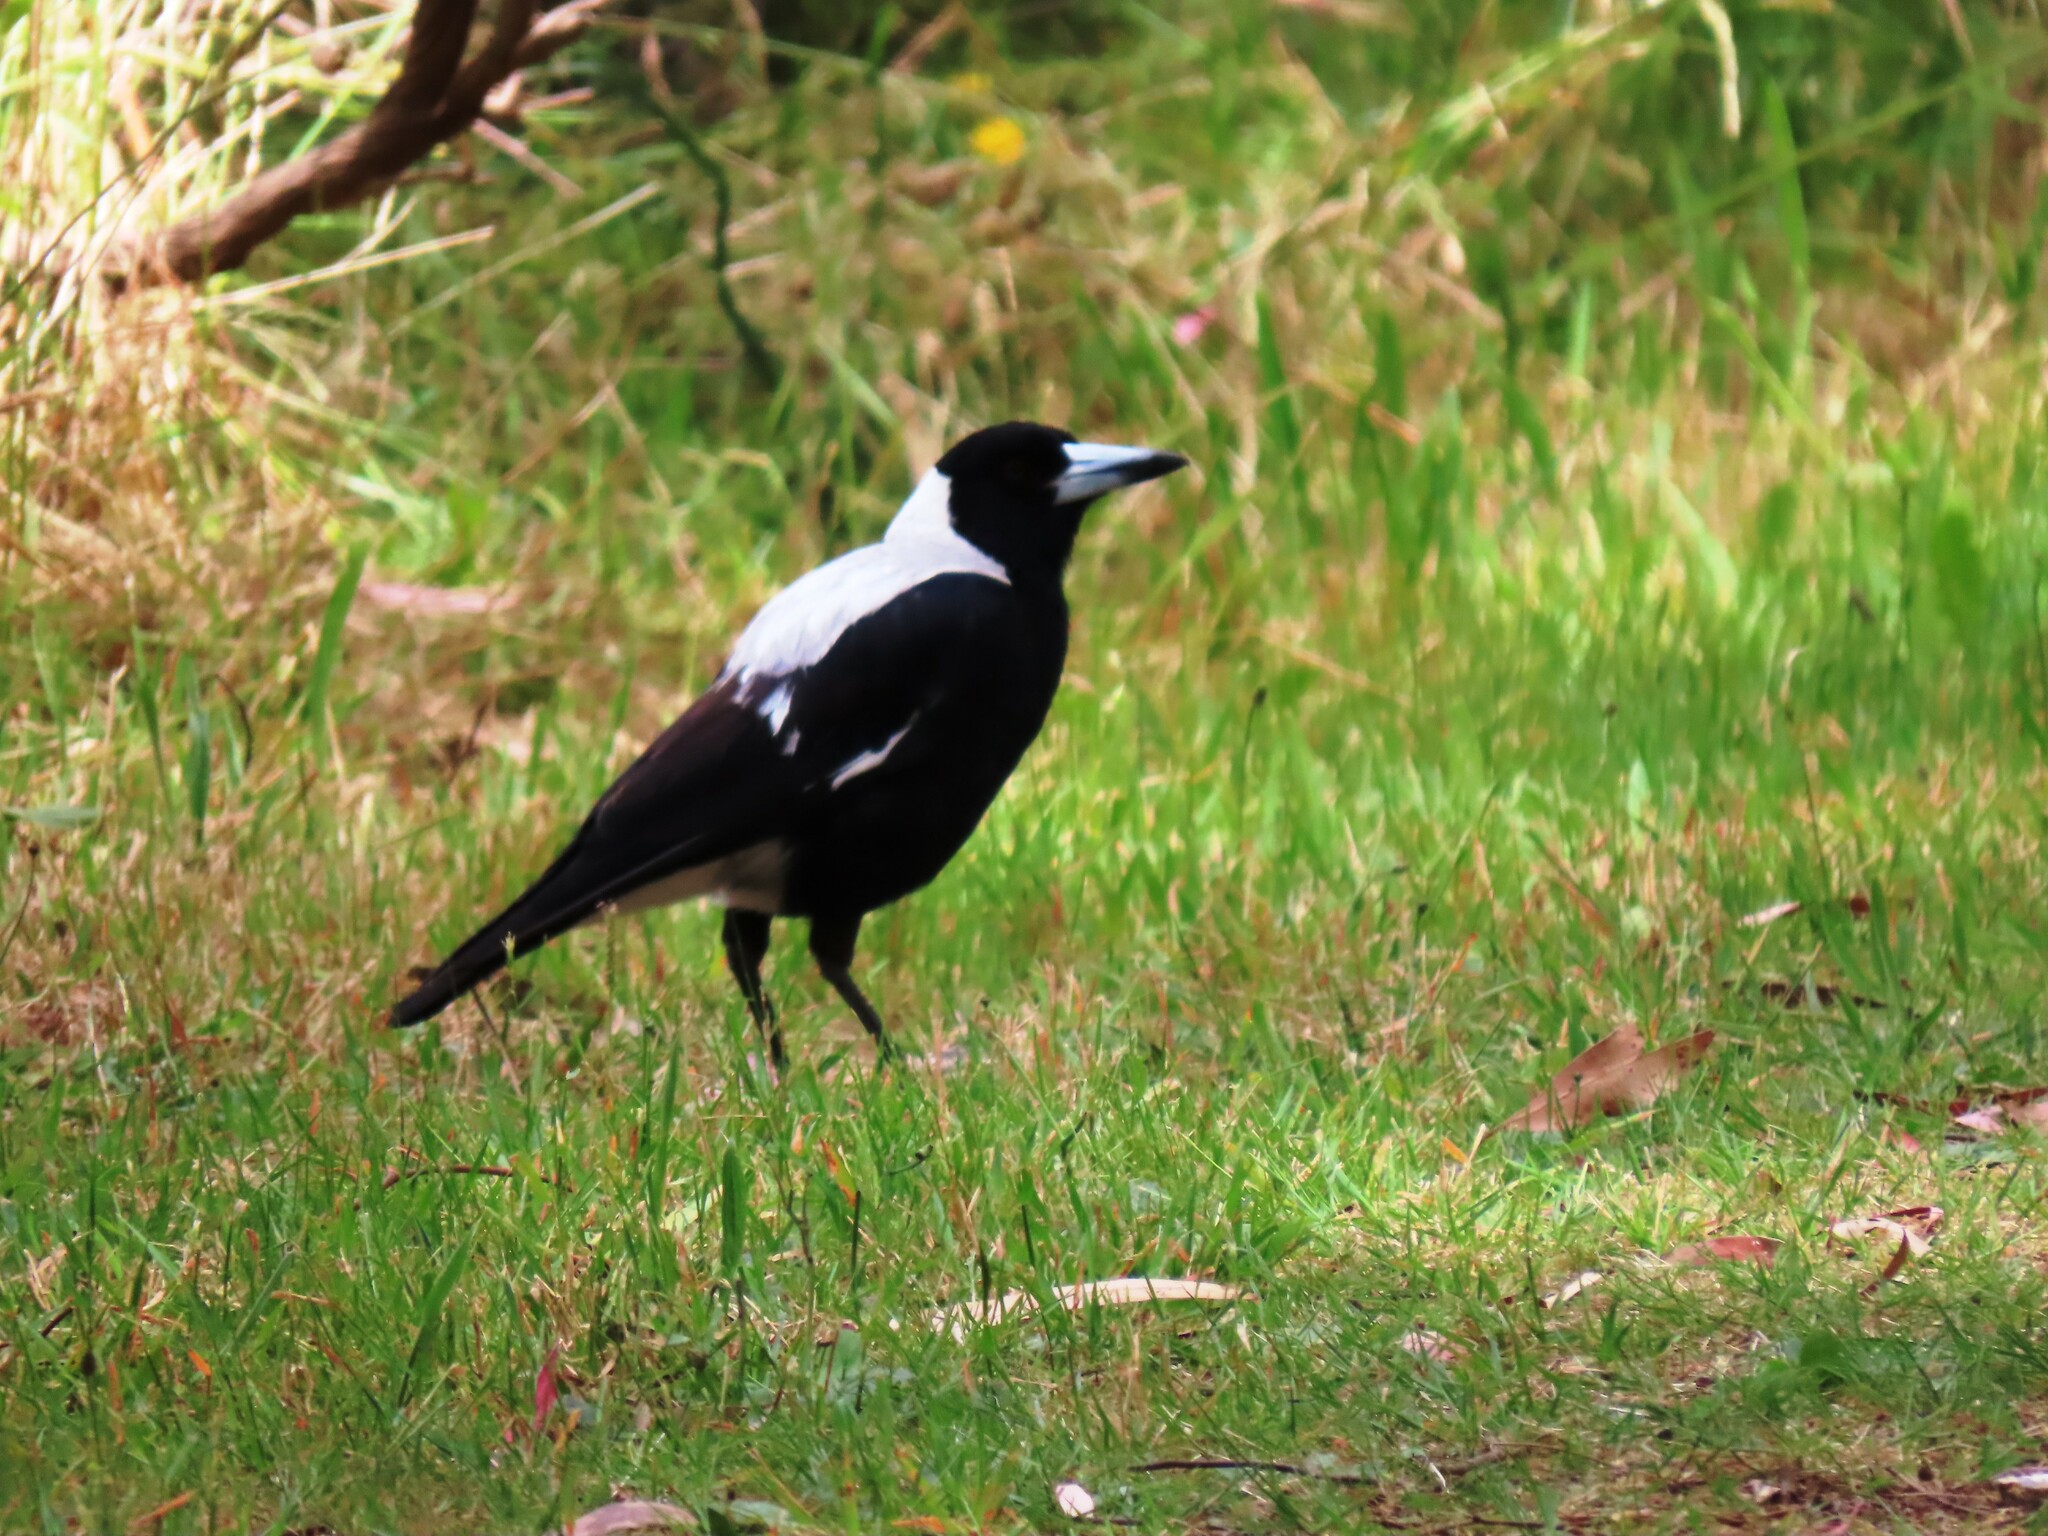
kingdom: Animalia
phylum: Chordata
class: Aves
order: Passeriformes
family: Cracticidae
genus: Gymnorhina
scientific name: Gymnorhina tibicen
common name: Australian magpie
